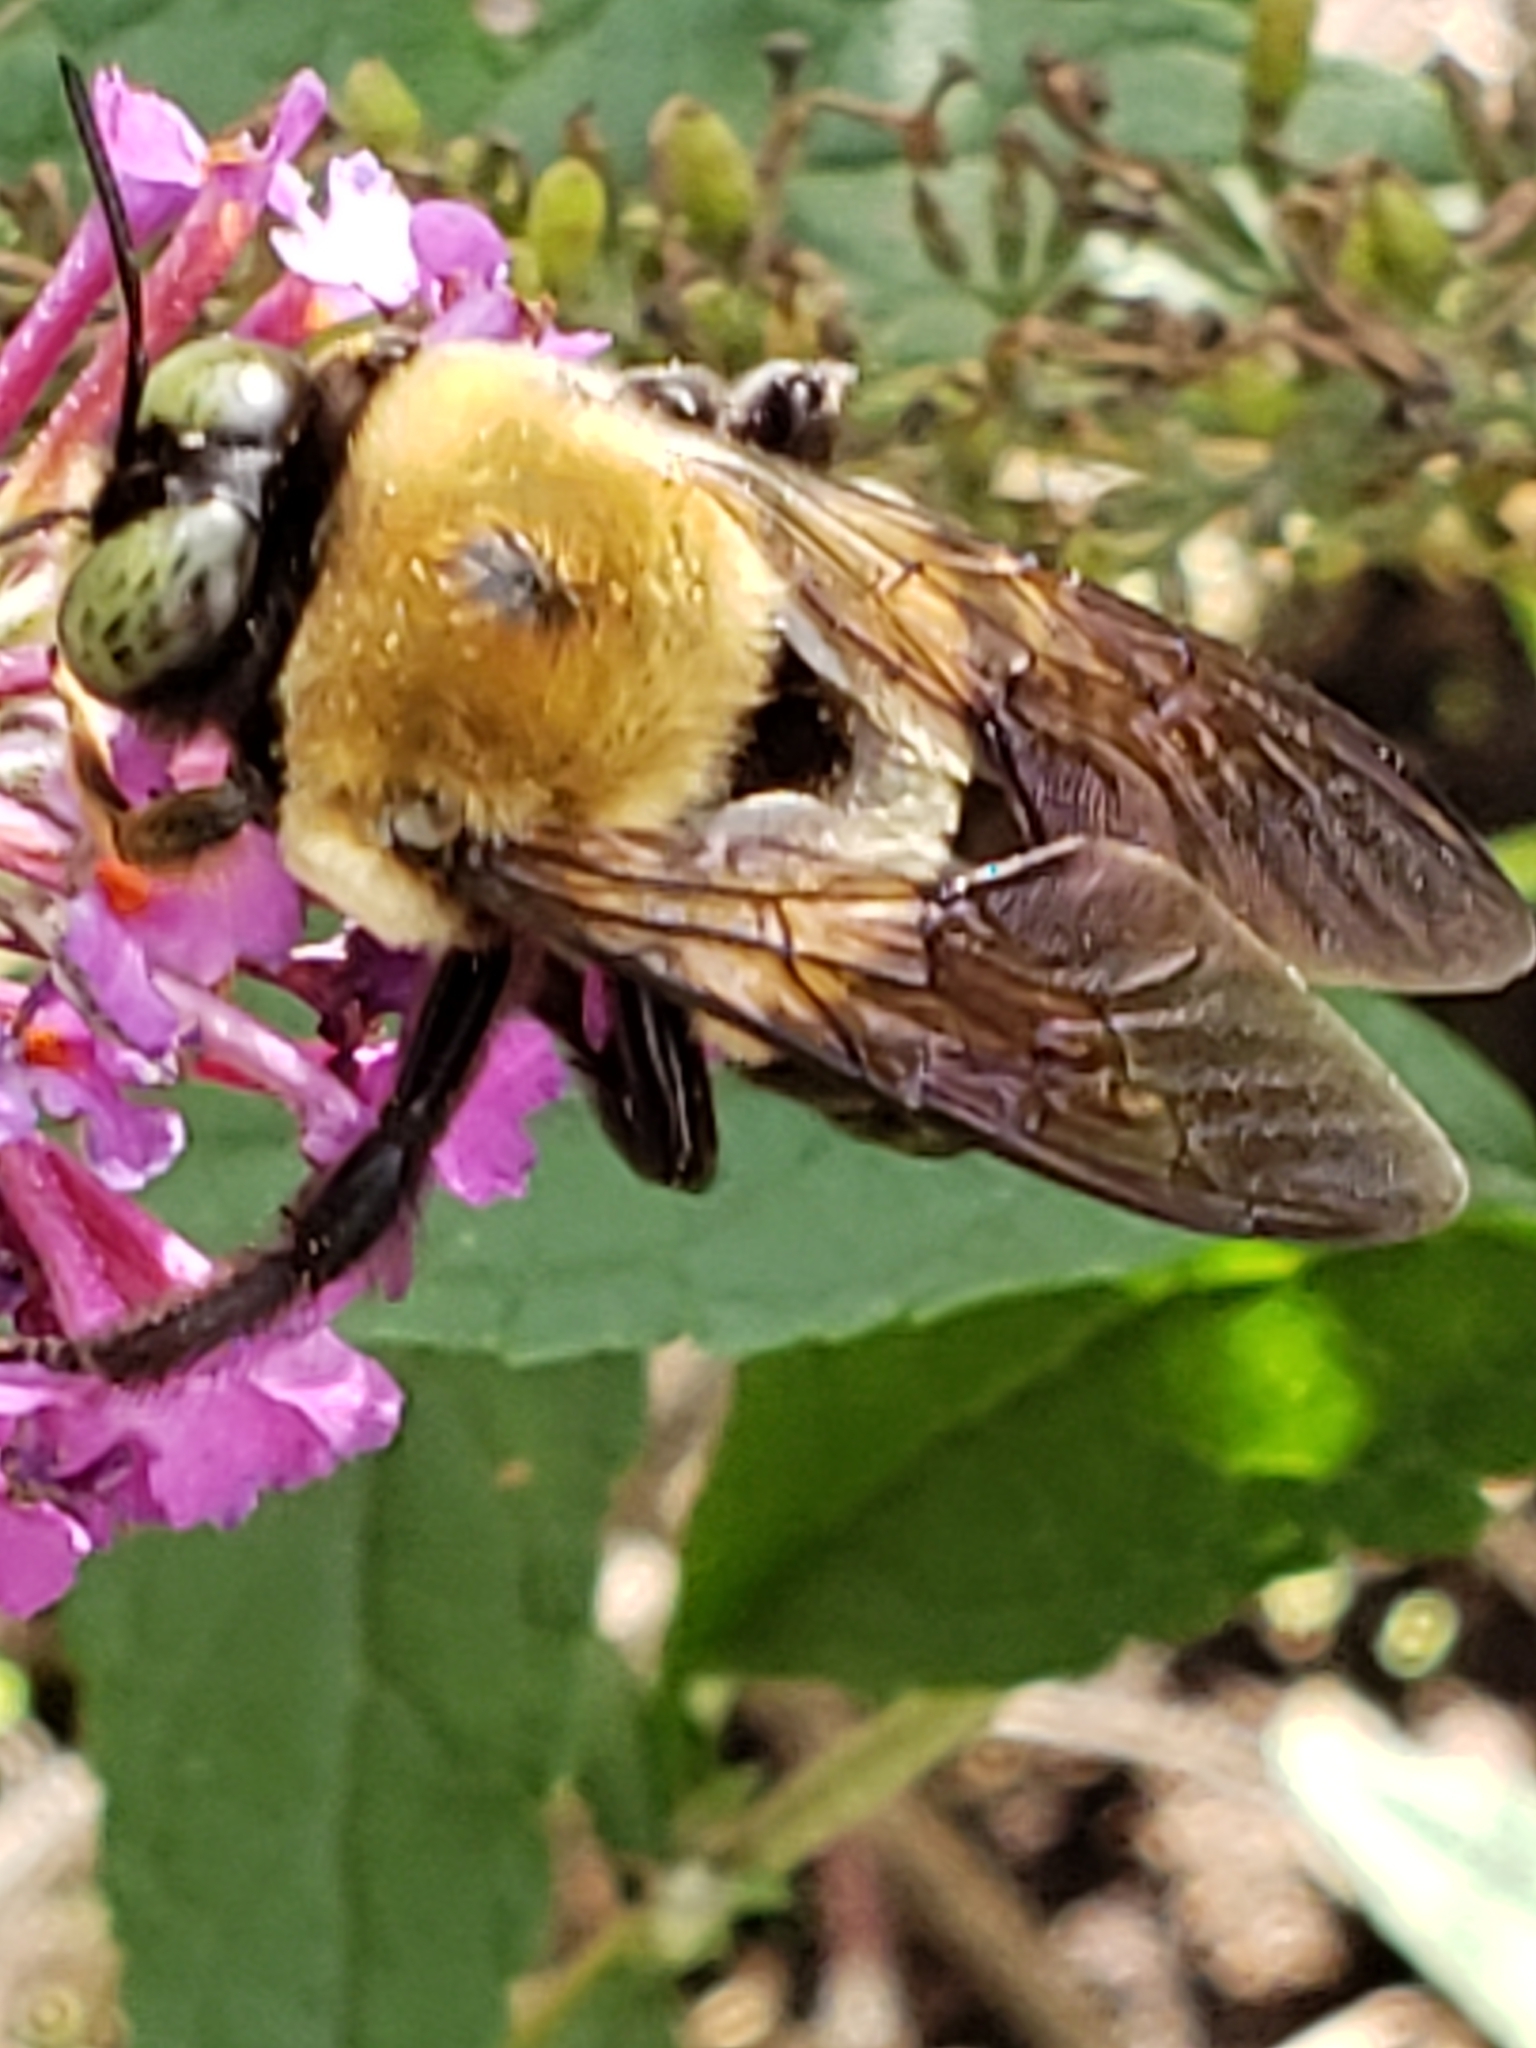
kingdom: Animalia
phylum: Arthropoda
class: Insecta
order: Hymenoptera
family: Apidae
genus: Xylocopa
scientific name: Xylocopa virginica
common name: Carpenter bee
